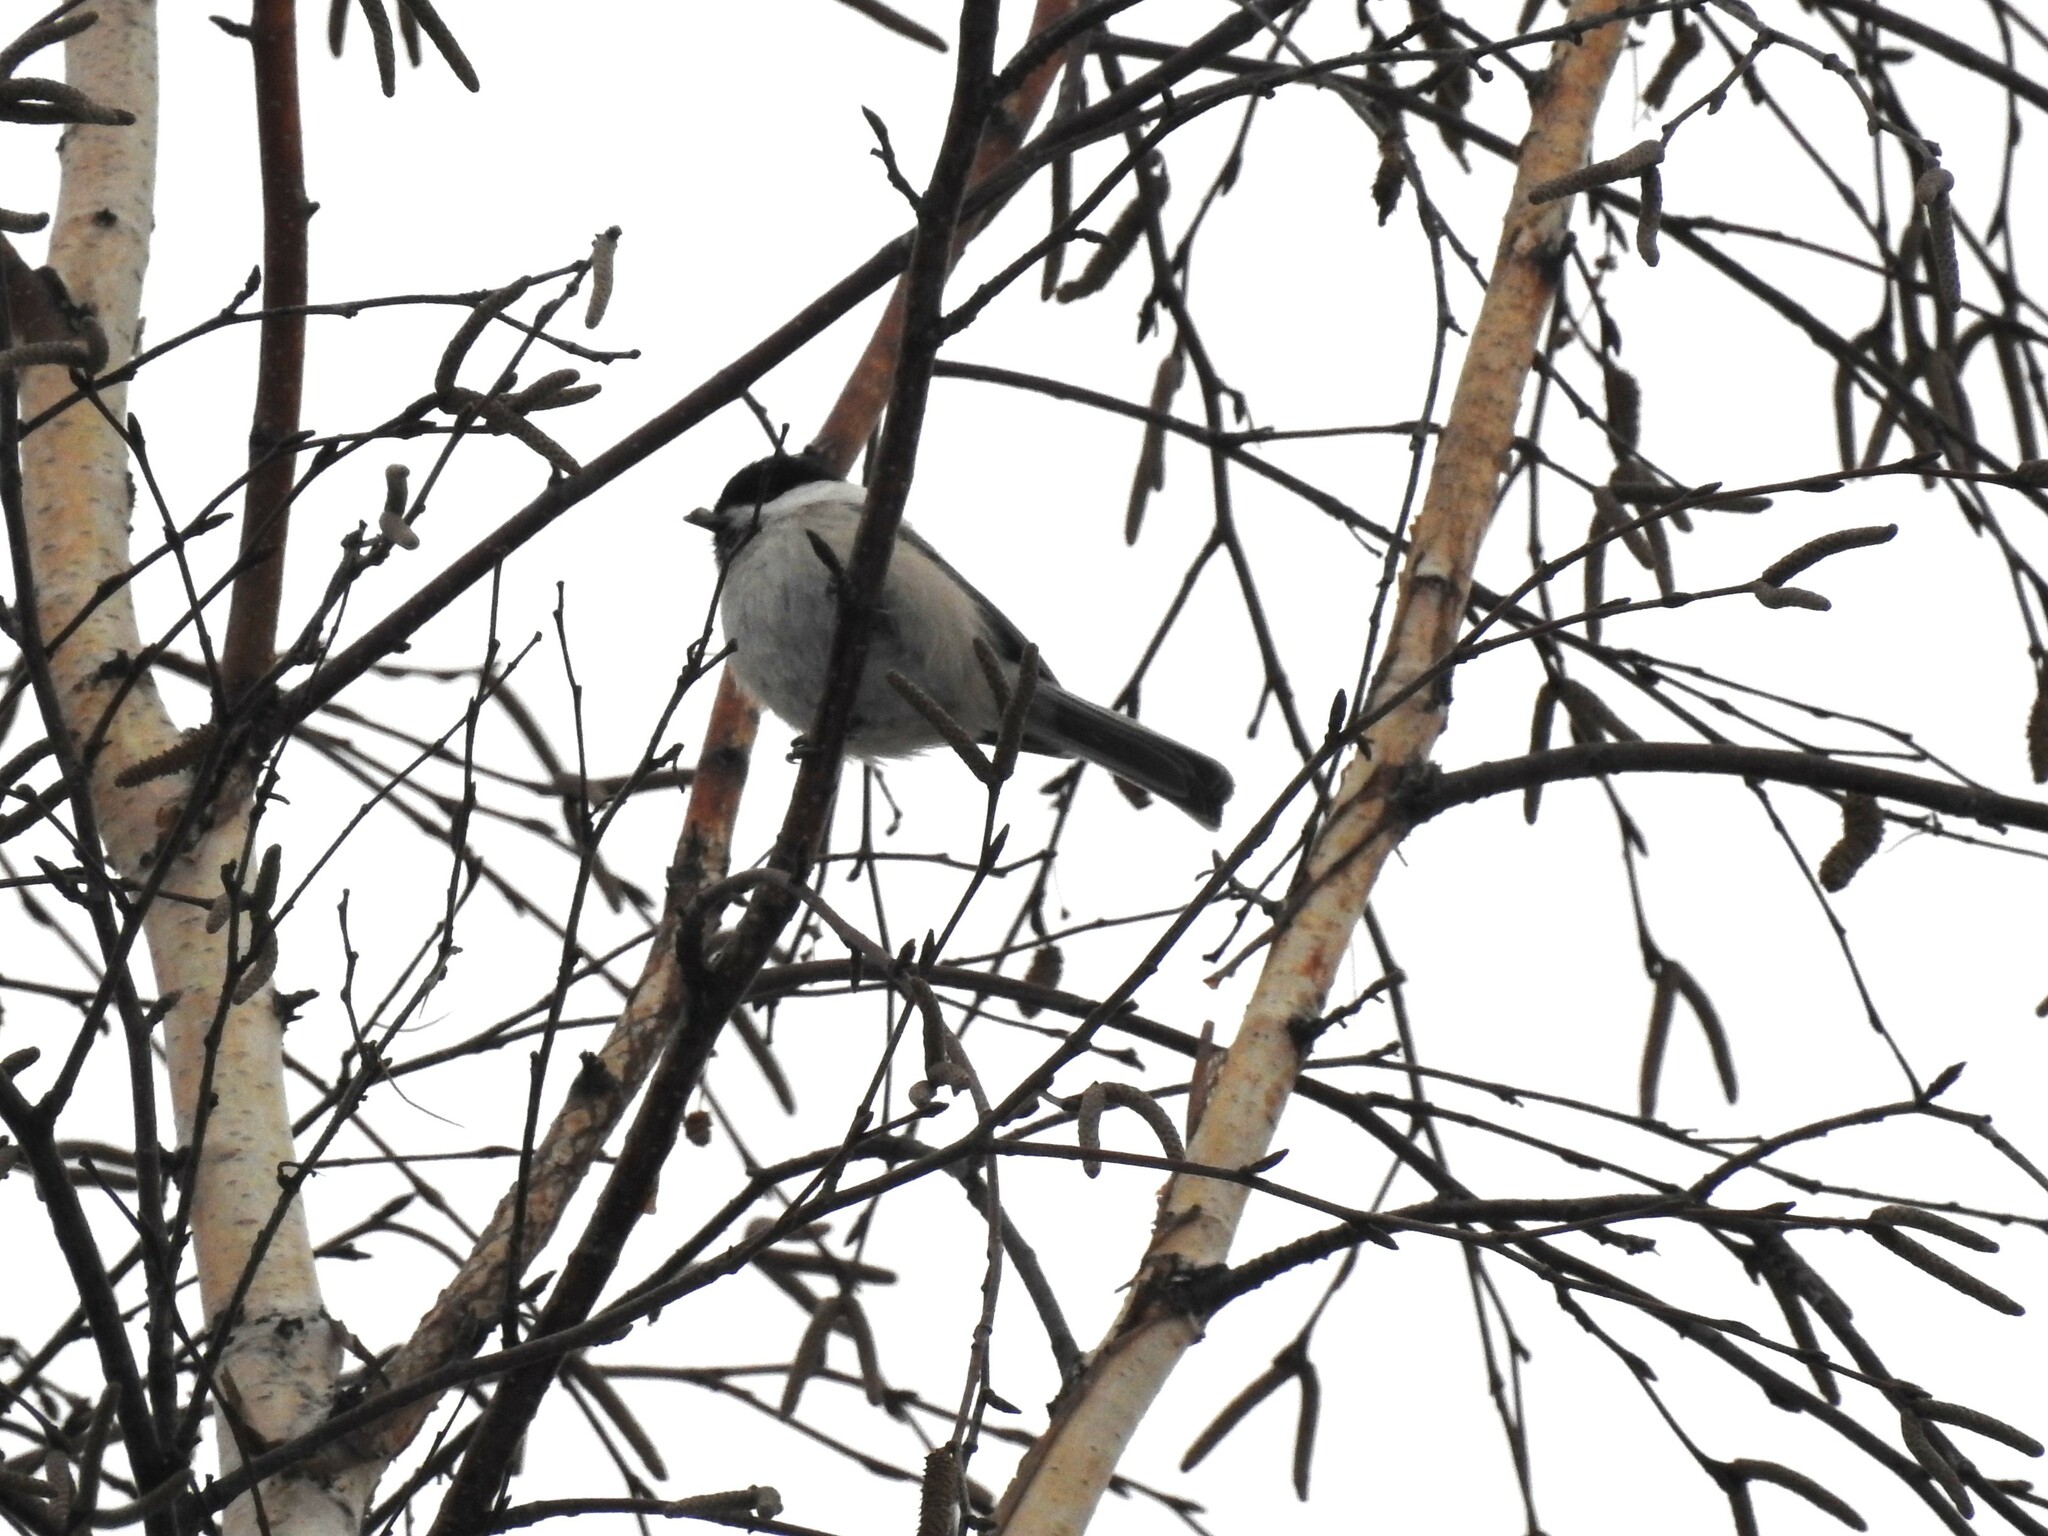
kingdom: Animalia
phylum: Chordata
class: Aves
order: Passeriformes
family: Paridae
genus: Poecile
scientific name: Poecile montanus
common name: Willow tit
